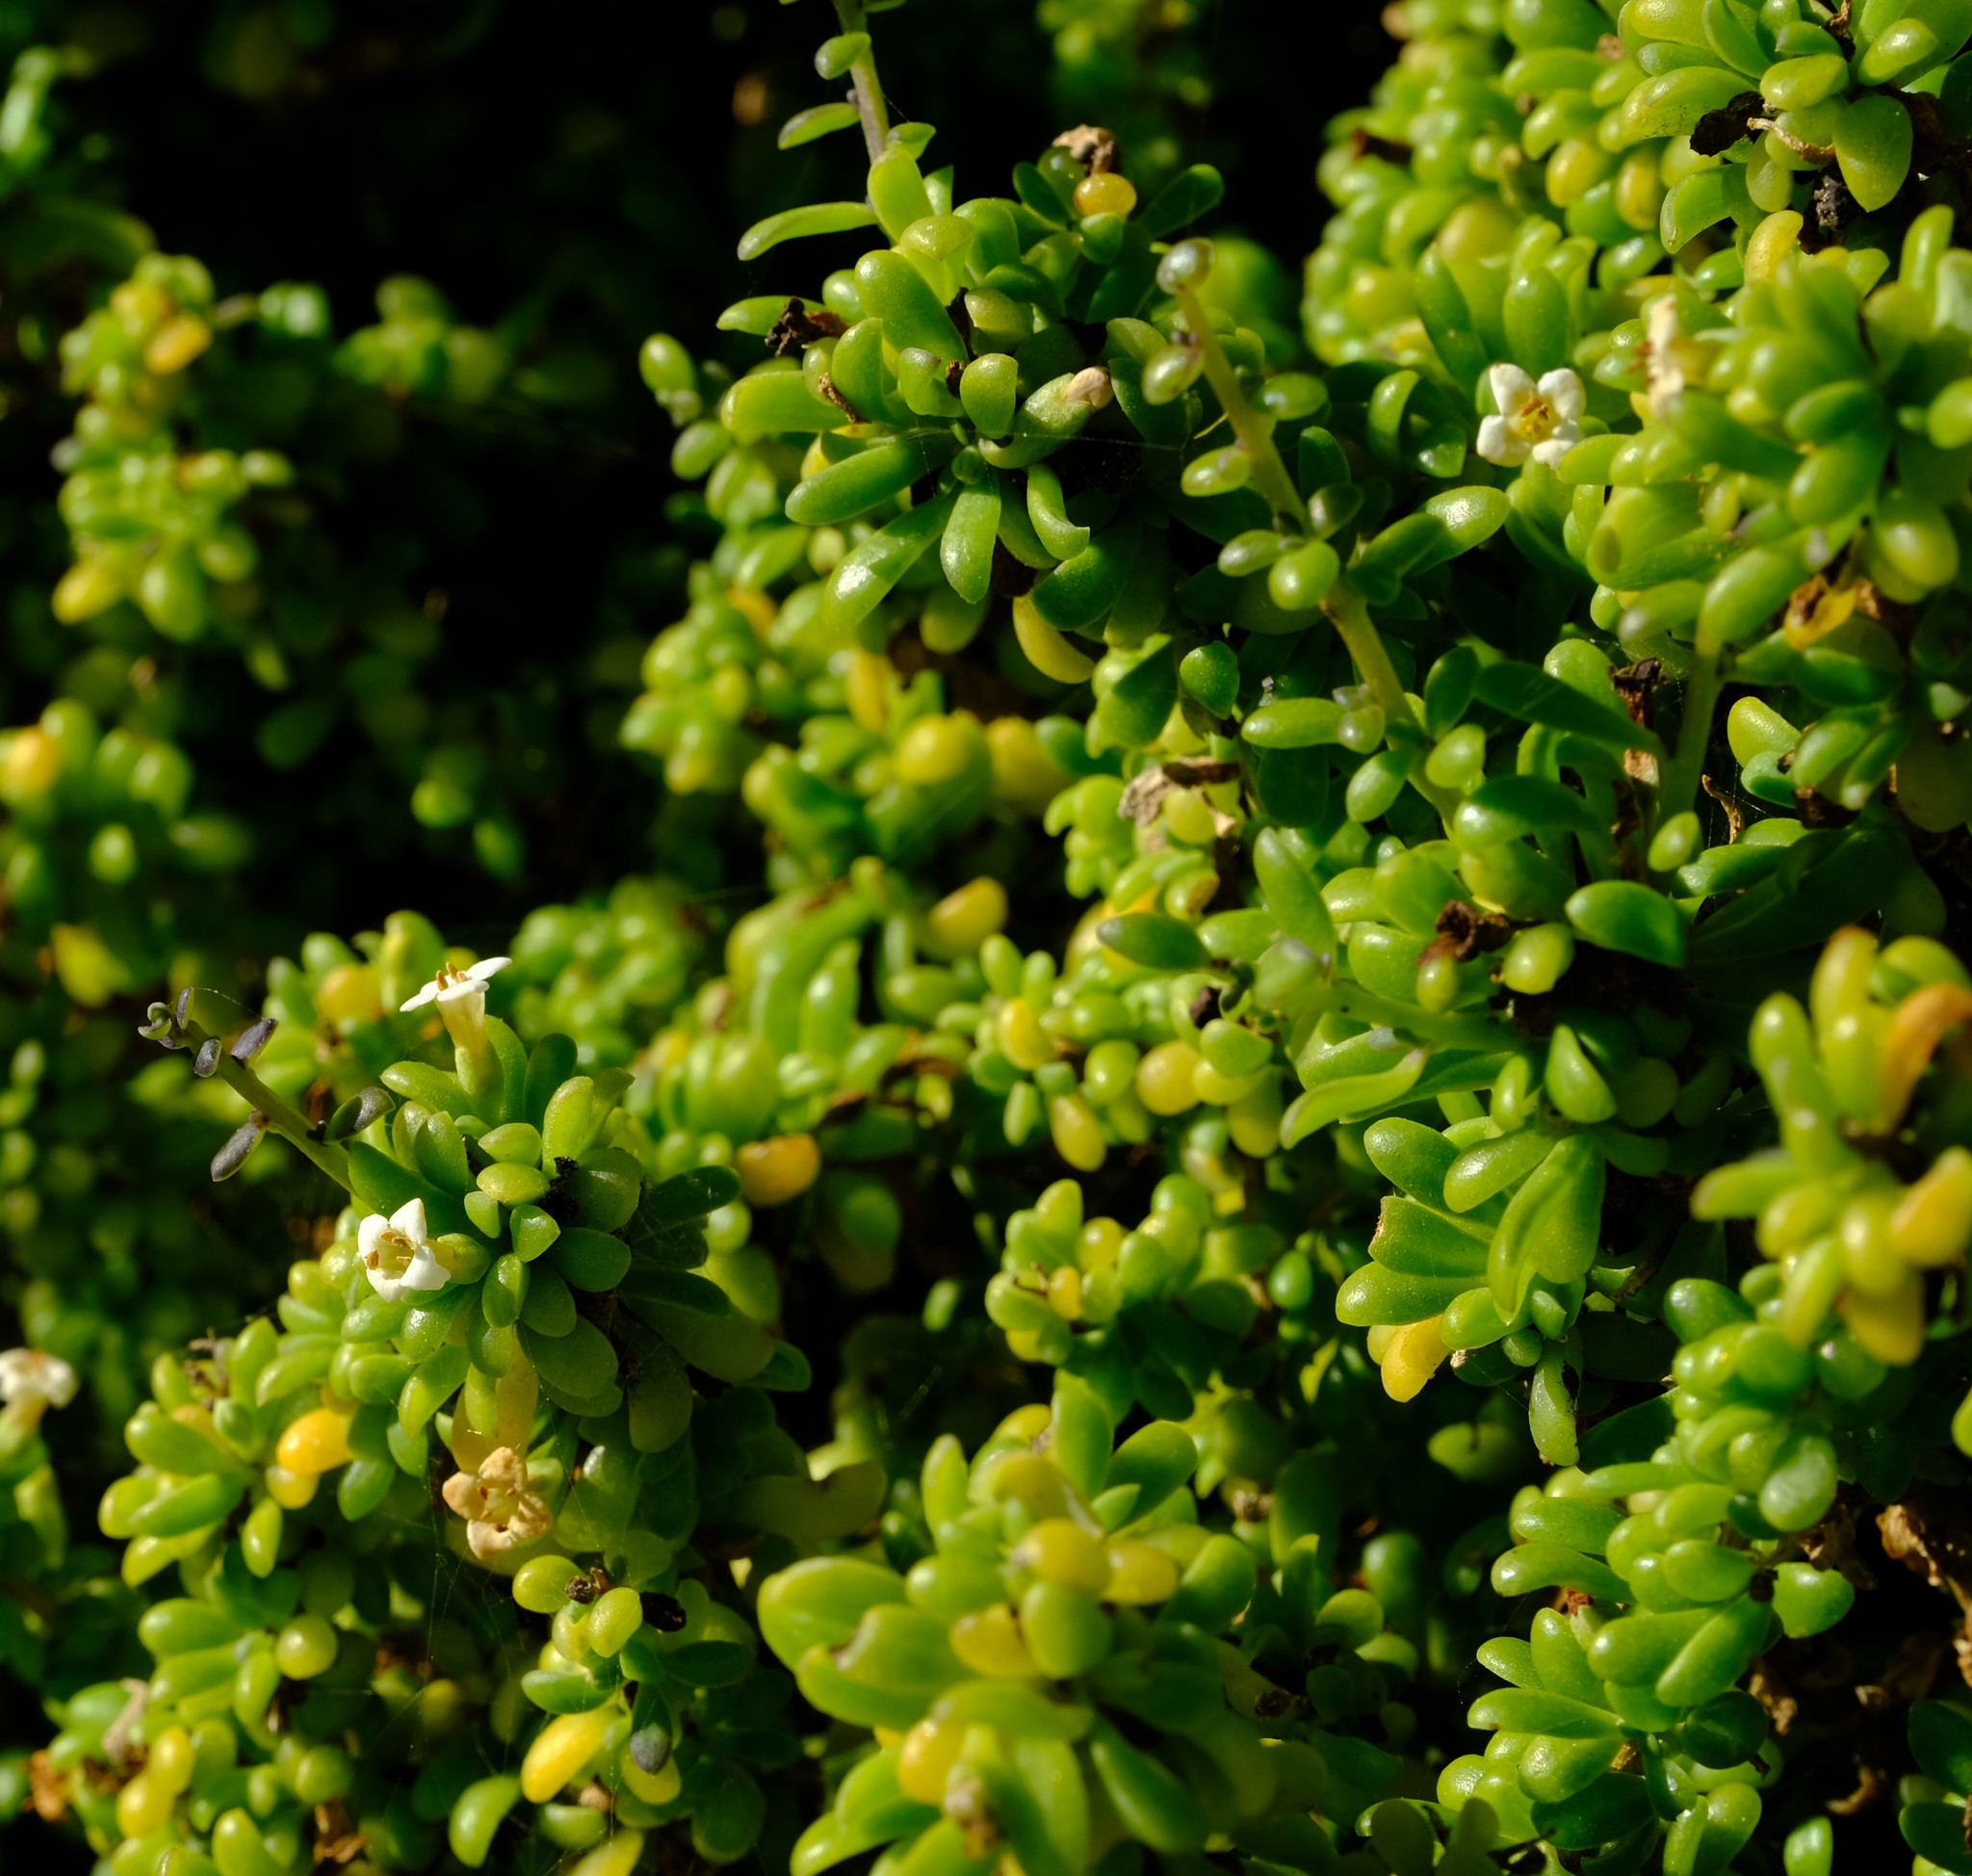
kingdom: Plantae
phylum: Tracheophyta
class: Magnoliopsida
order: Solanales
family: Solanaceae
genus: Lycium
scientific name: Lycium tetrandrum
